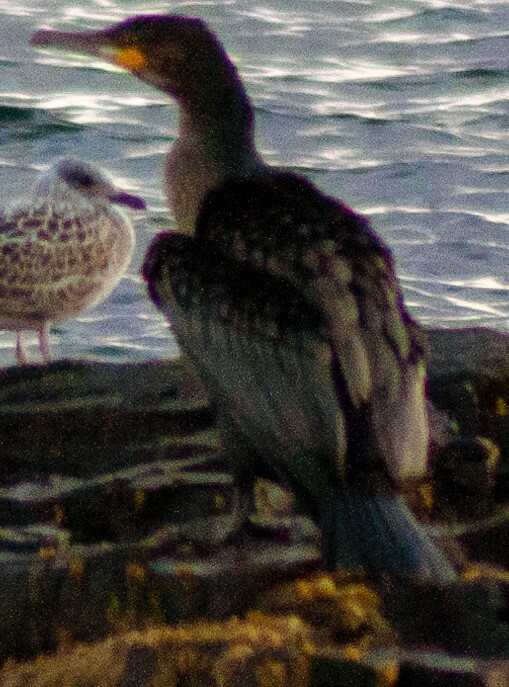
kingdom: Animalia
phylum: Chordata
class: Aves
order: Suliformes
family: Phalacrocoracidae
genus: Phalacrocorax
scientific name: Phalacrocorax carbo
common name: Great cormorant
